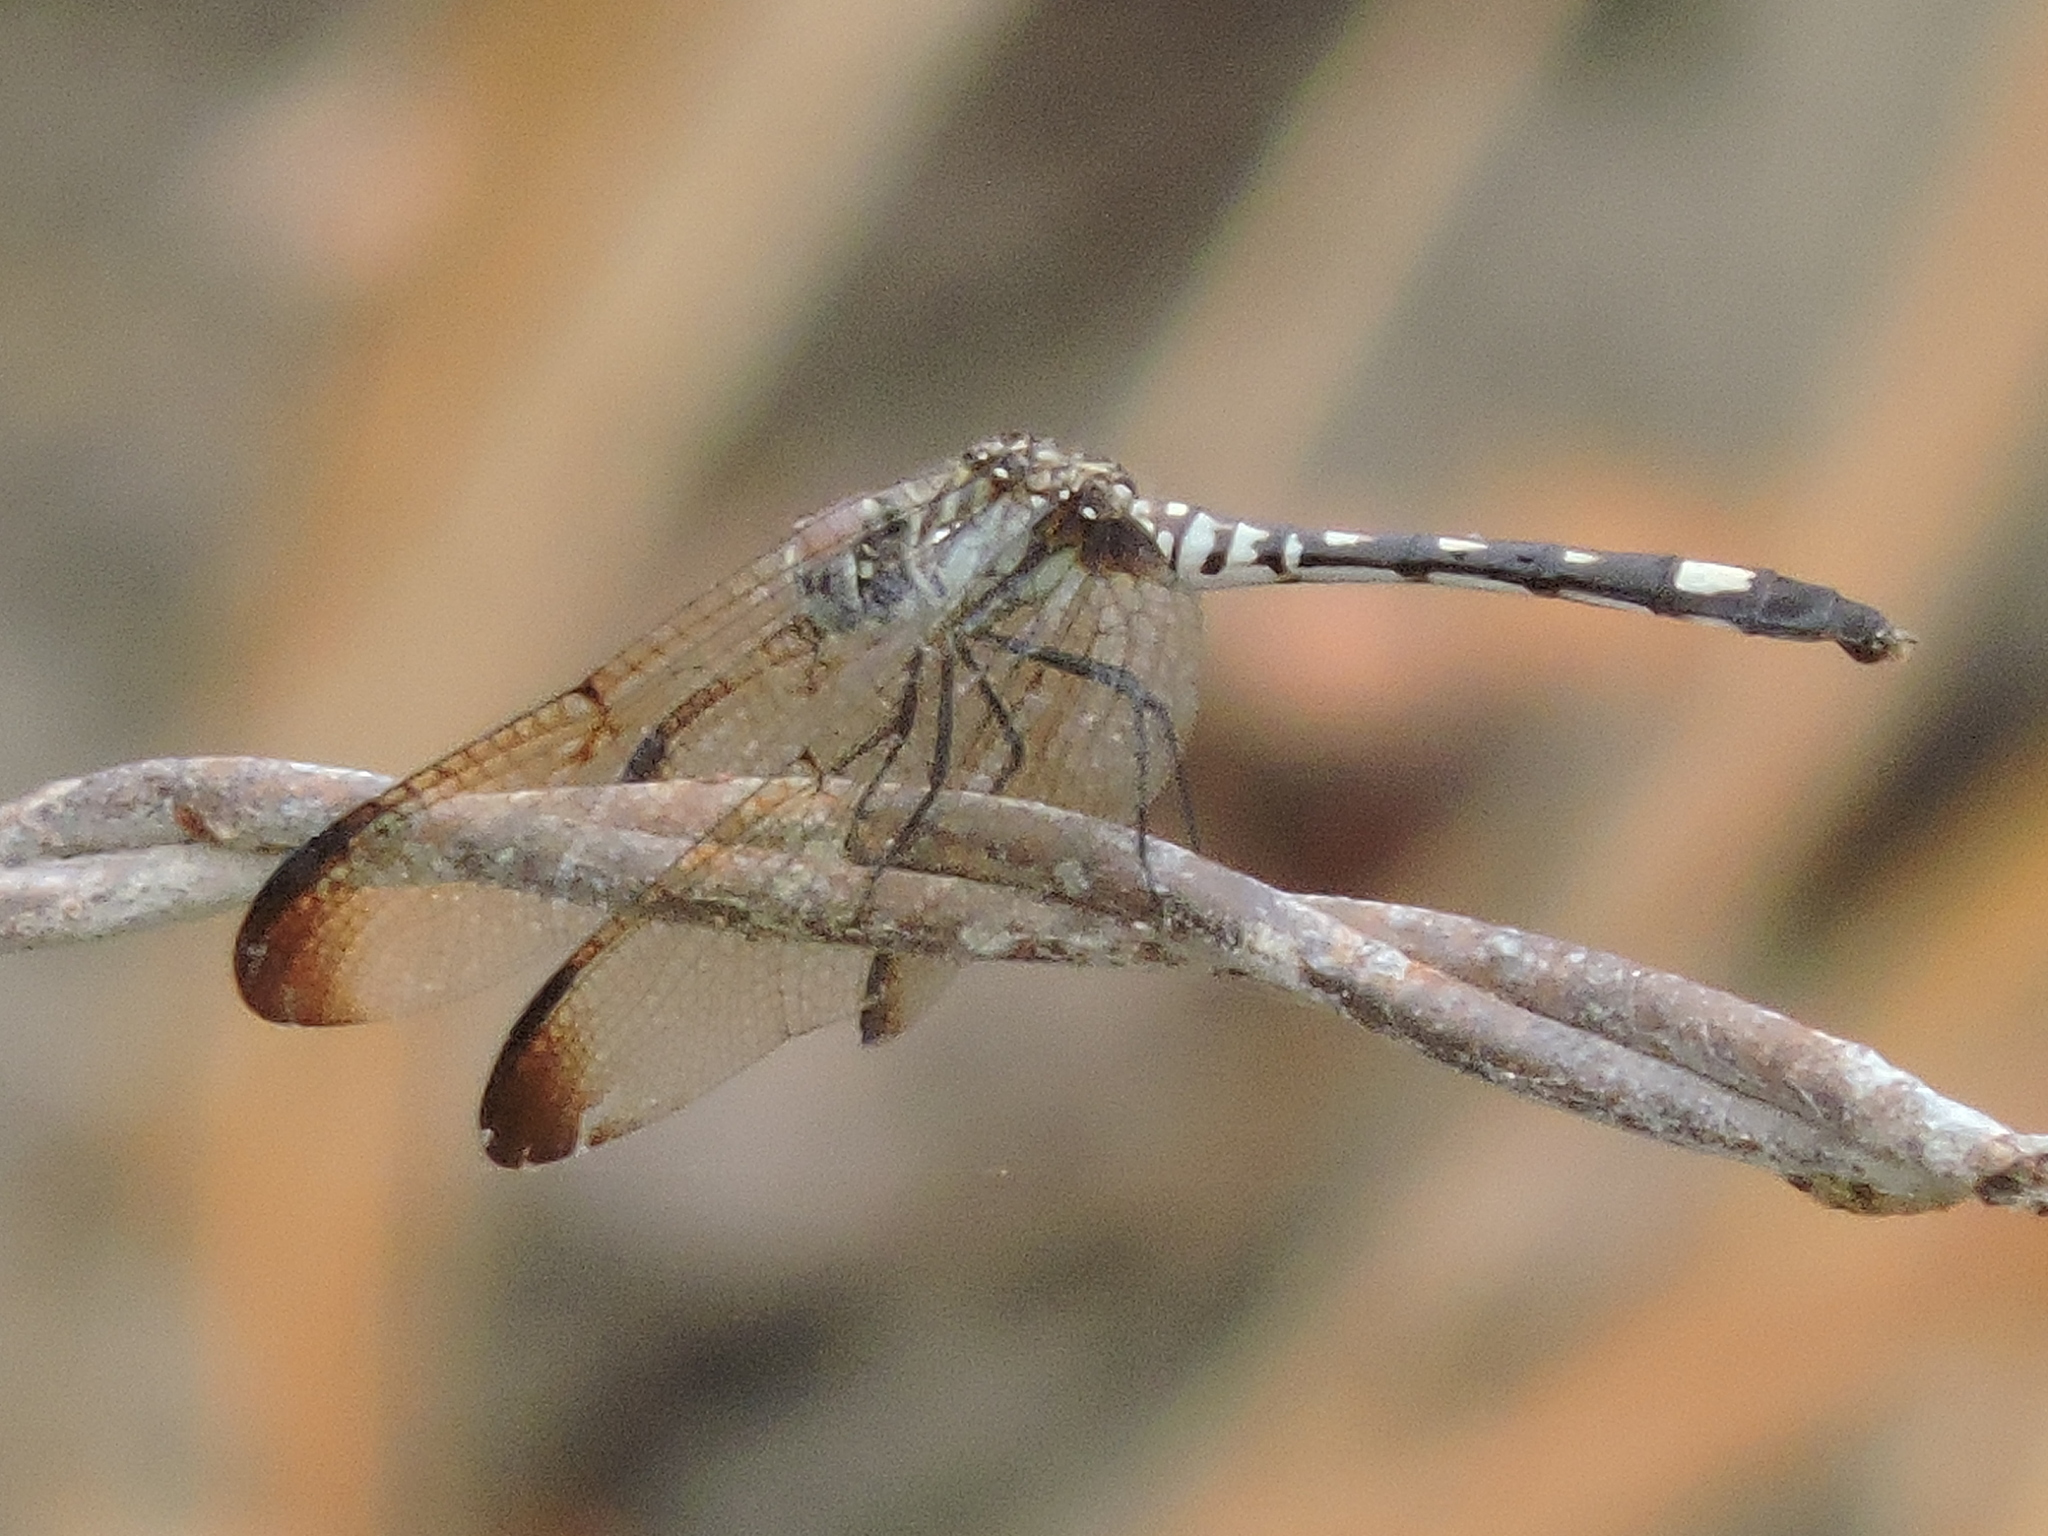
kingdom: Animalia
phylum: Arthropoda
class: Insecta
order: Odonata
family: Libellulidae
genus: Dythemis
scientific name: Dythemis velox
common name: Swift setwing
